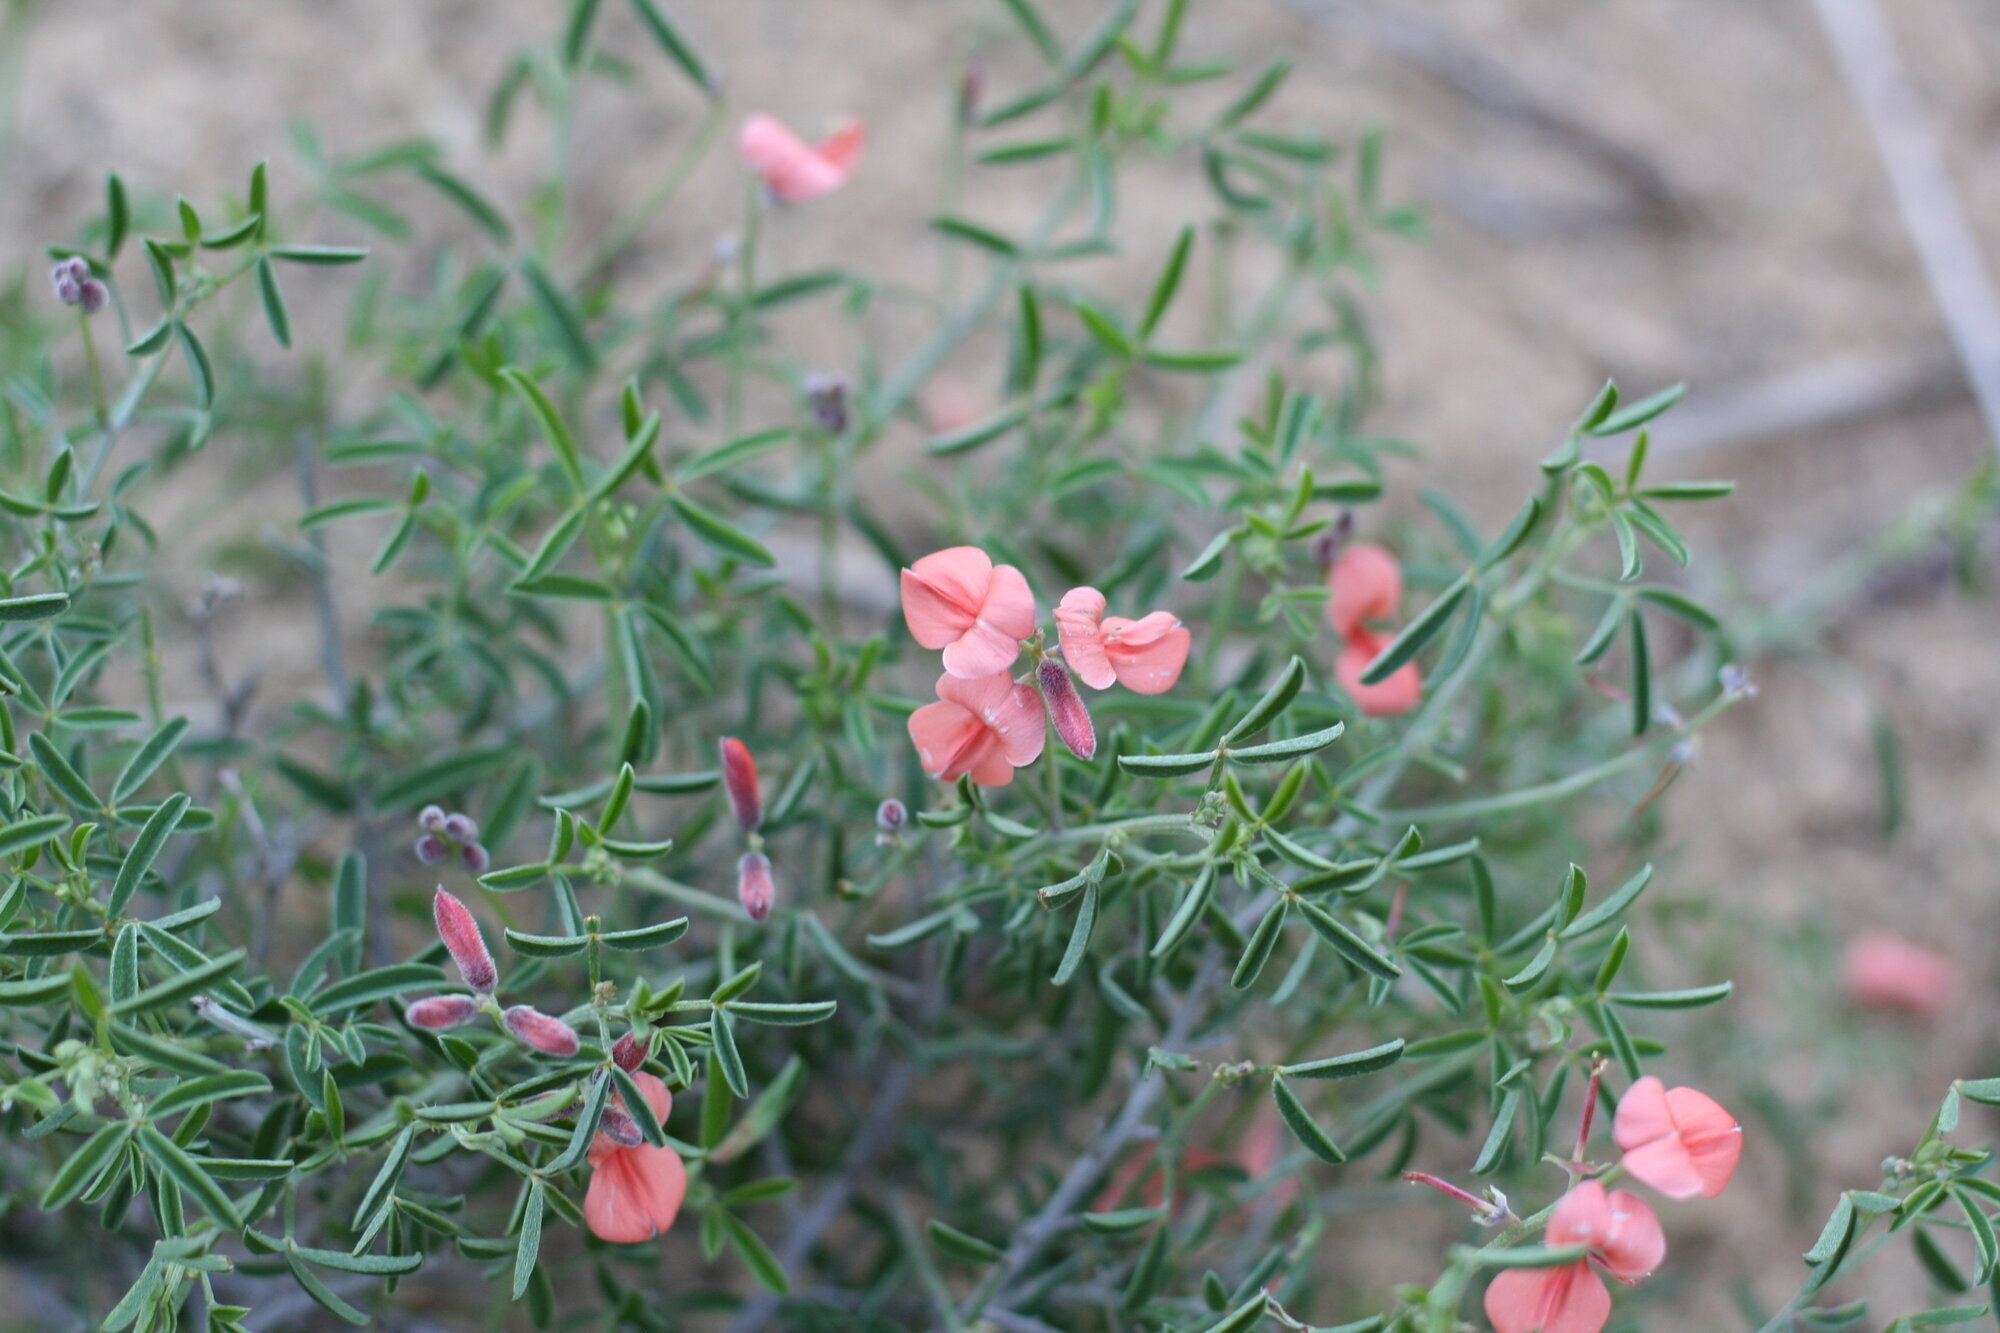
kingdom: Plantae
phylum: Tracheophyta
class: Magnoliopsida
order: Fabales
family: Fabaceae
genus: Indigofera
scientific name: Indigofera candicans
